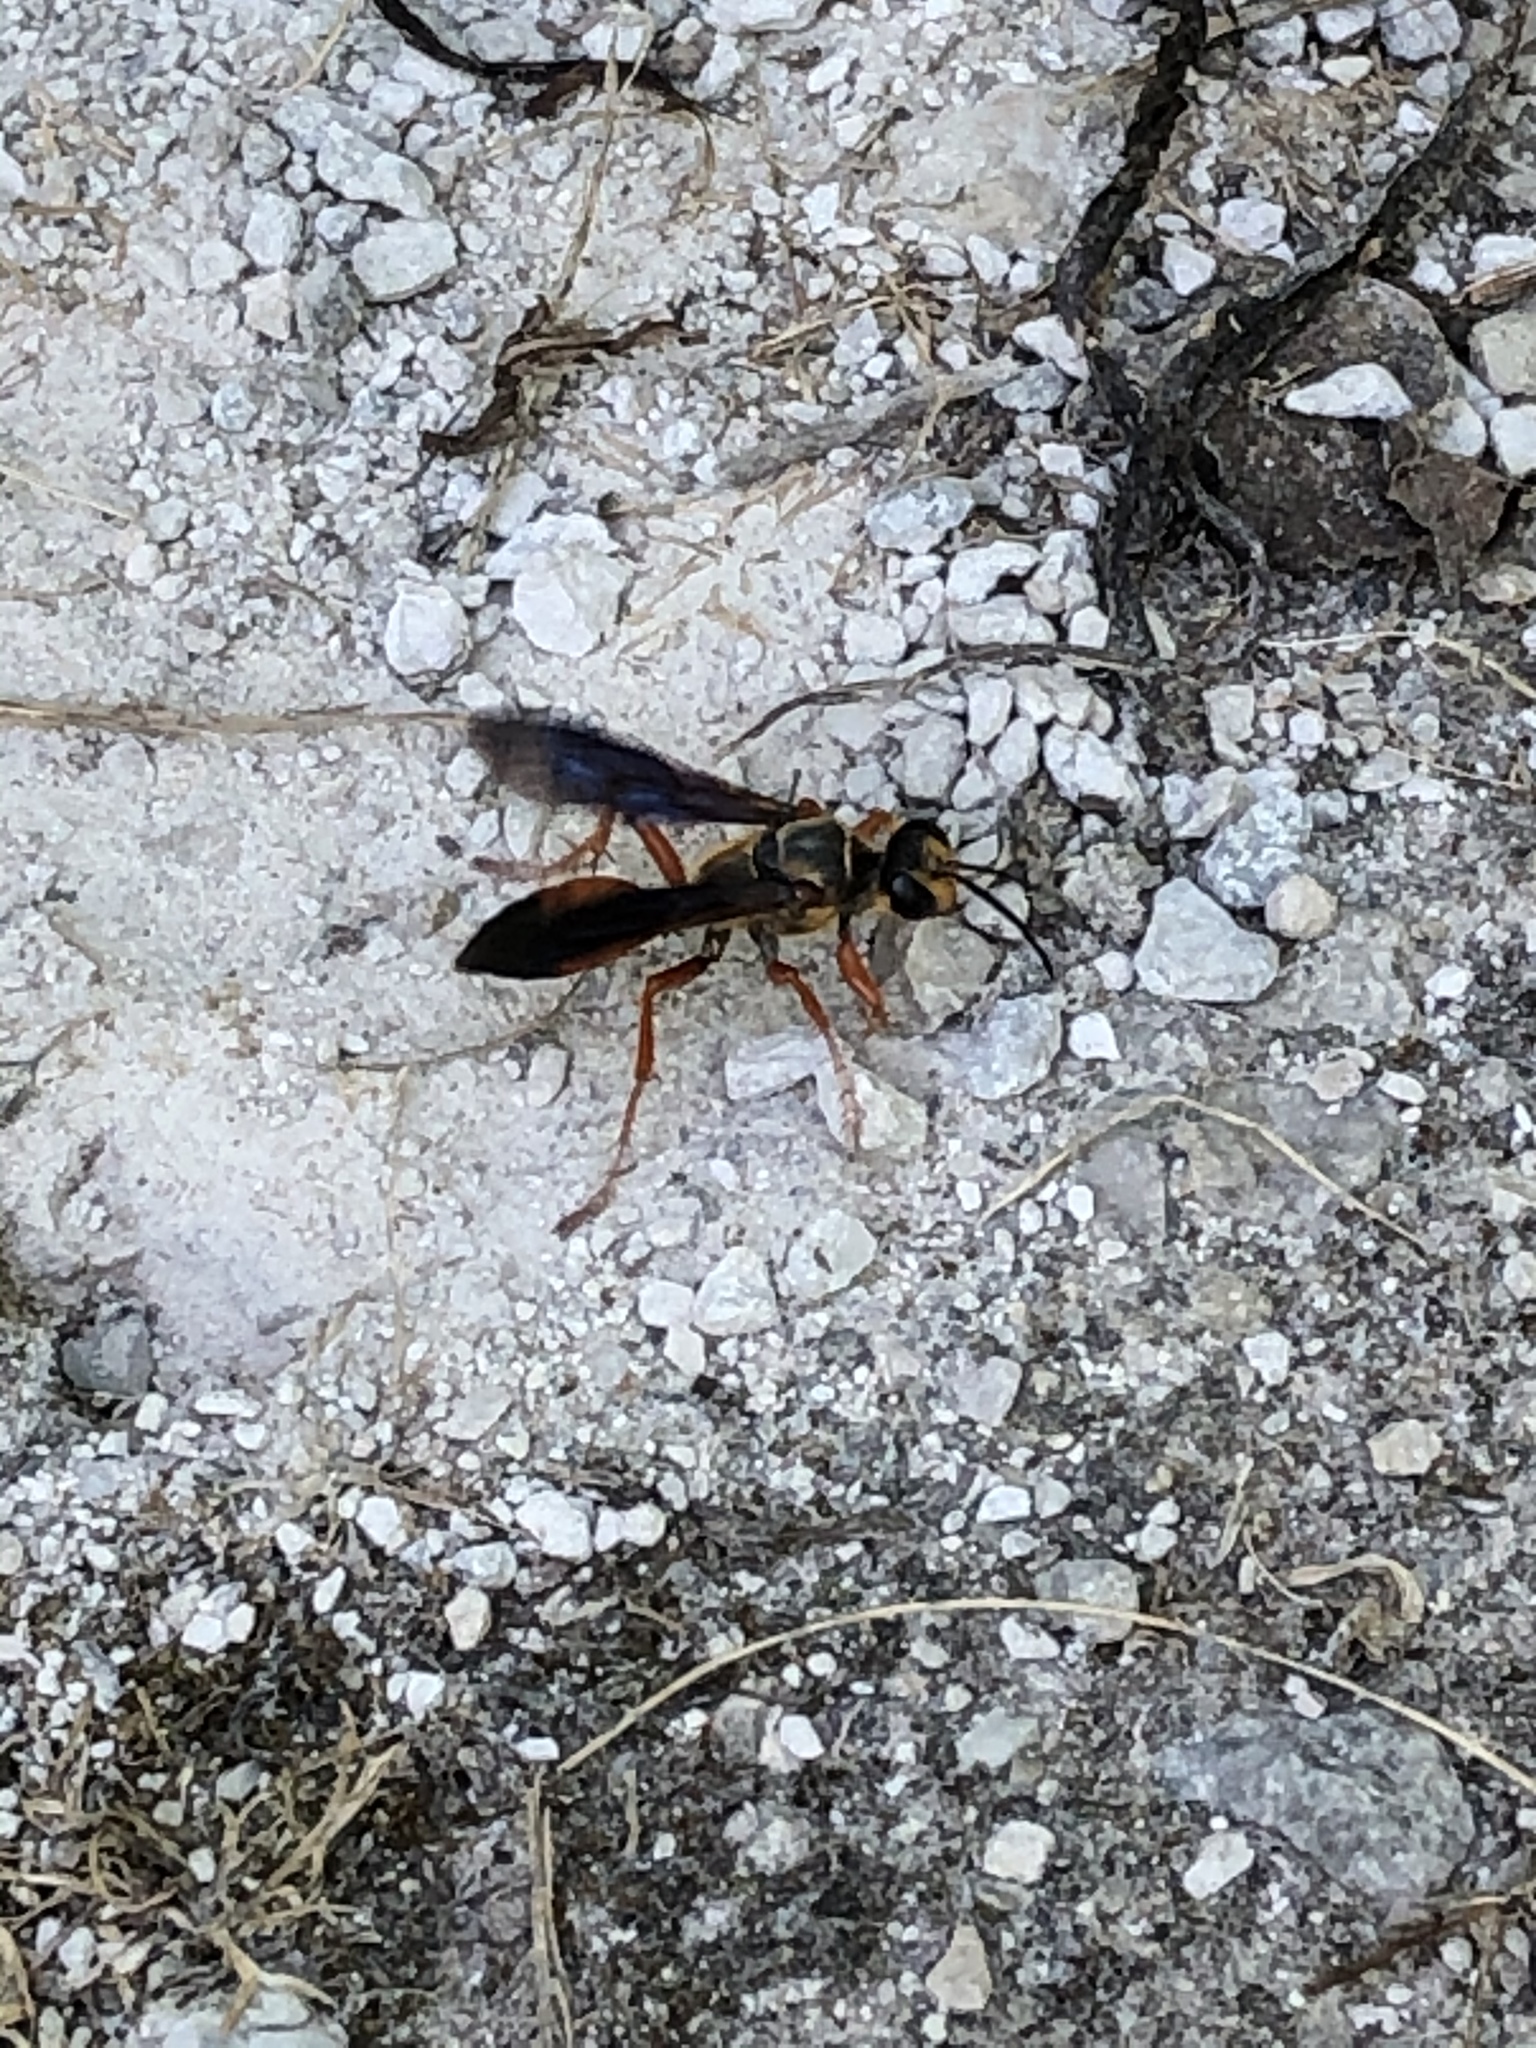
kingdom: Animalia
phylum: Arthropoda
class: Insecta
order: Hymenoptera
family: Sphecidae
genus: Sphex
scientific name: Sphex ichneumoneus
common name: Great golden digger wasp
